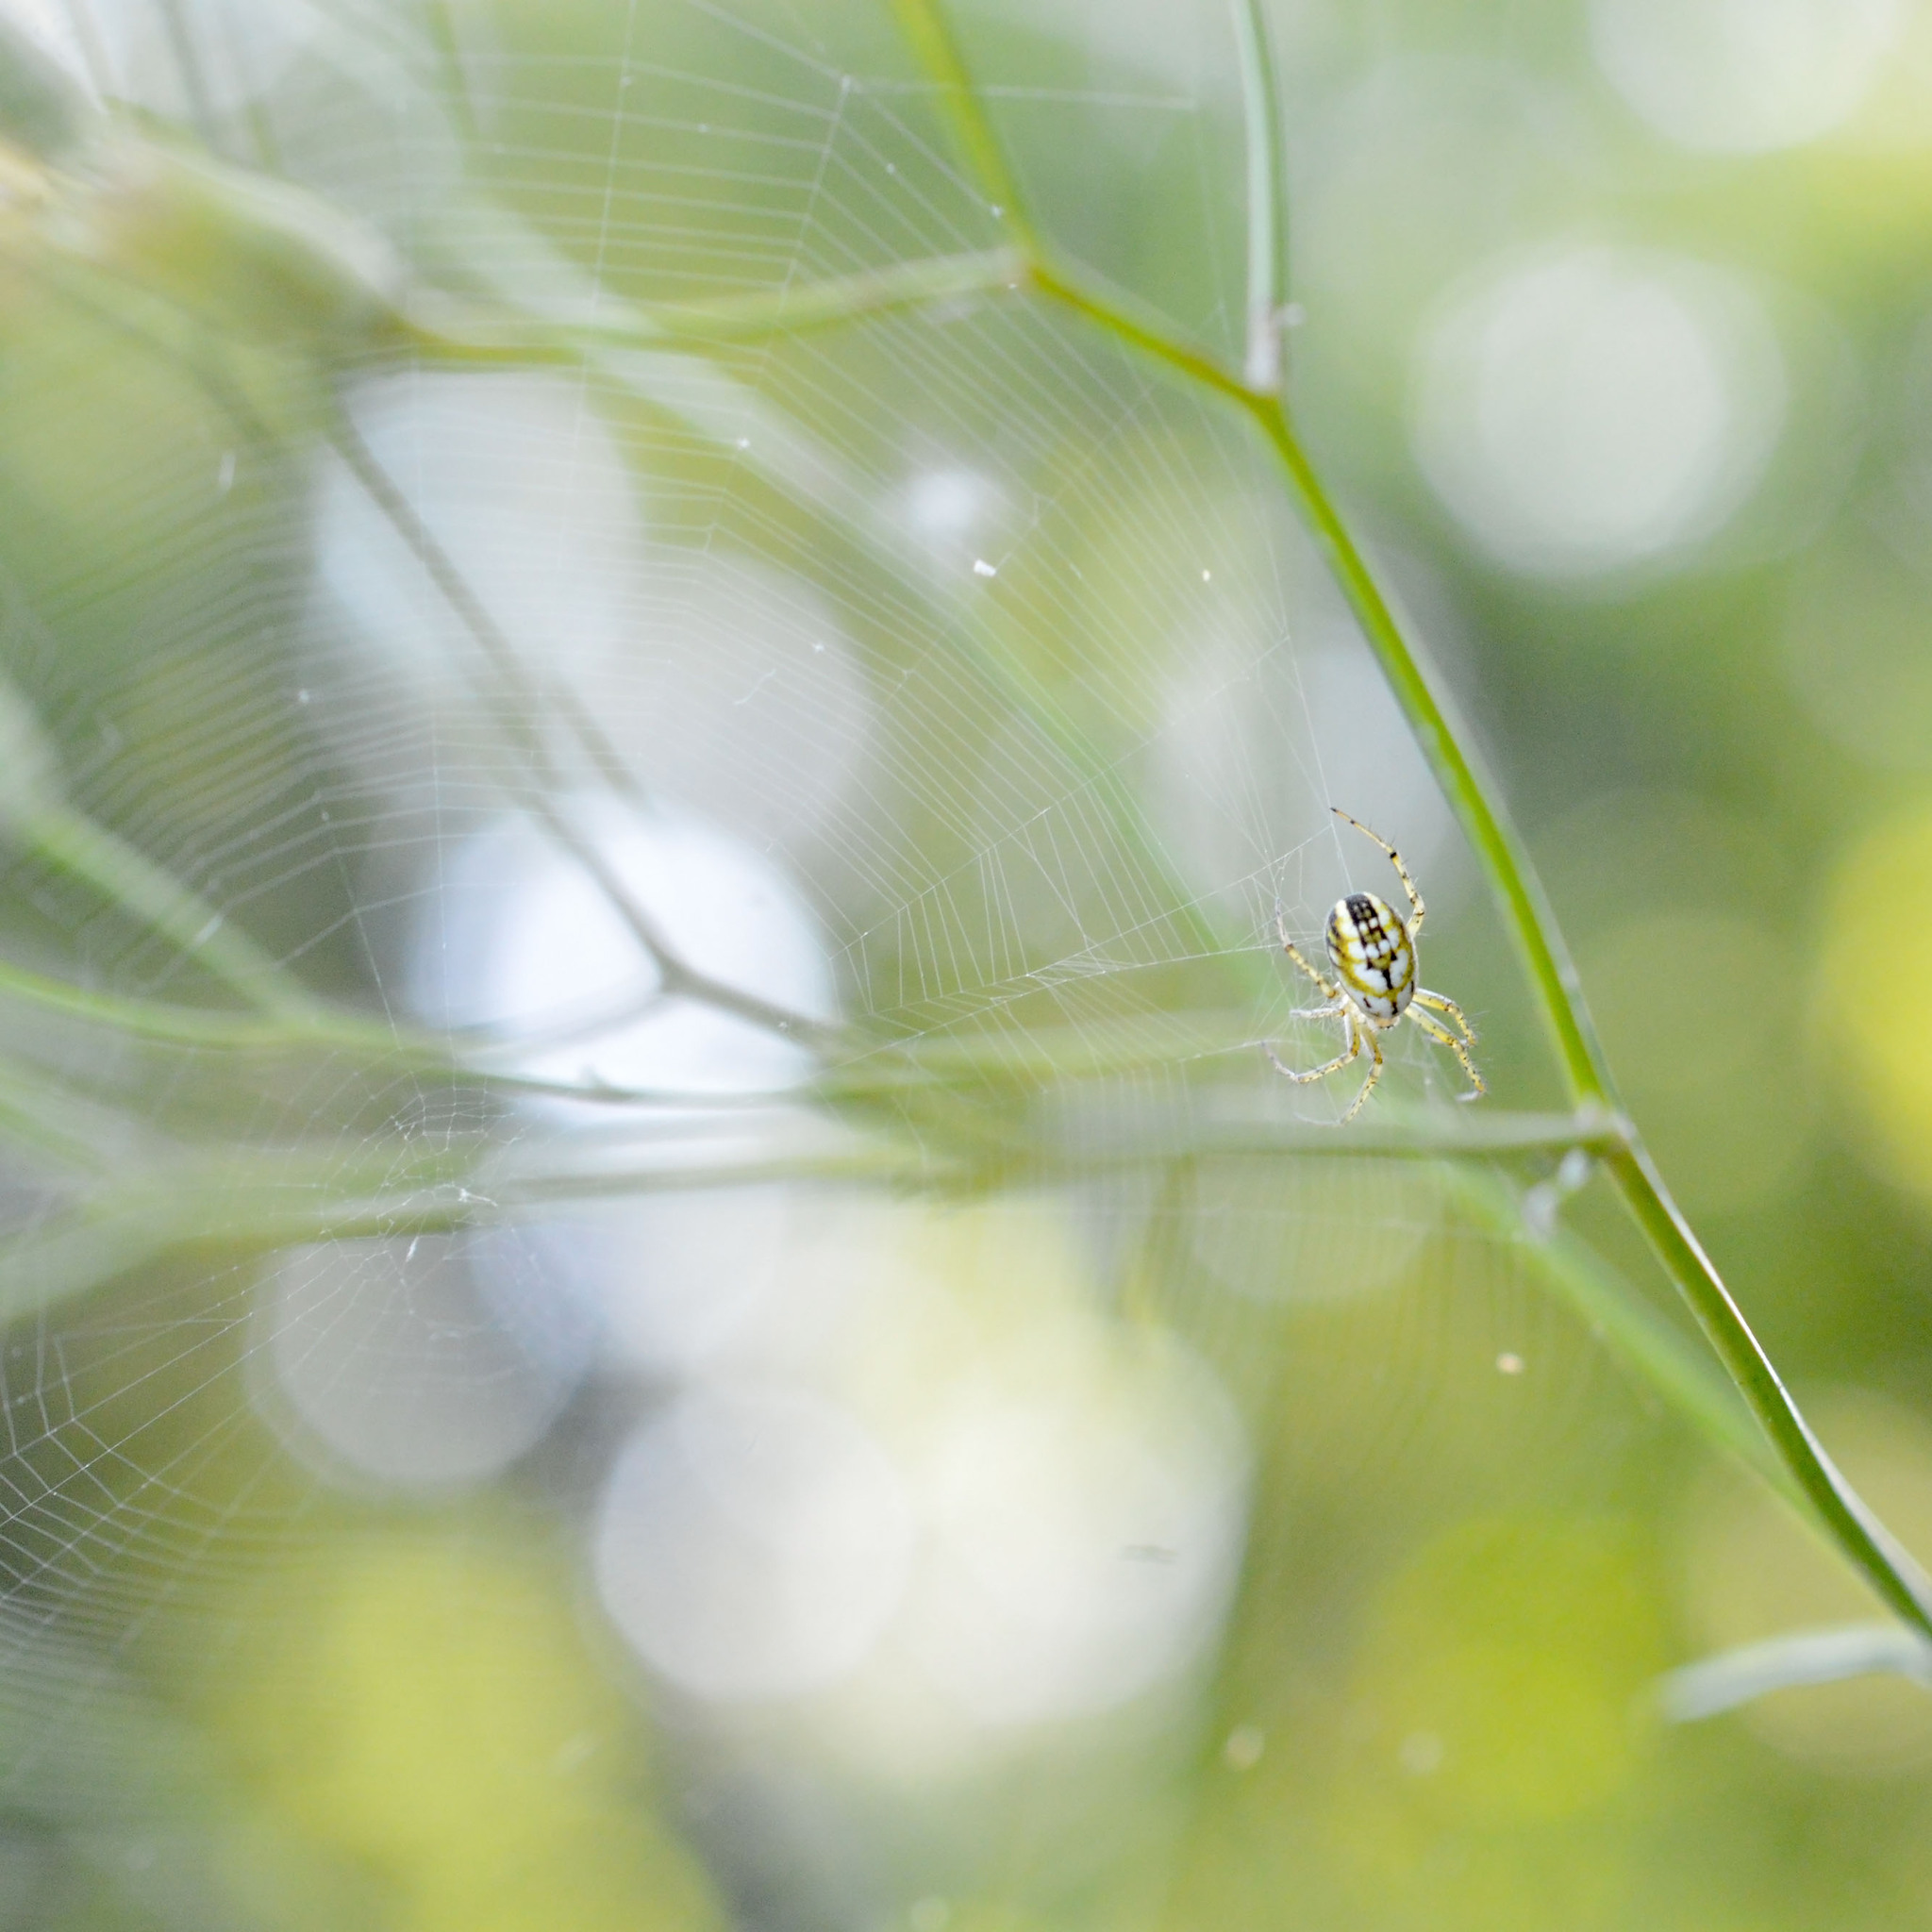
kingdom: Animalia
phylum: Arthropoda
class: Arachnida
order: Araneae
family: Araneidae
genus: Mangora
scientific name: Mangora acalypha
